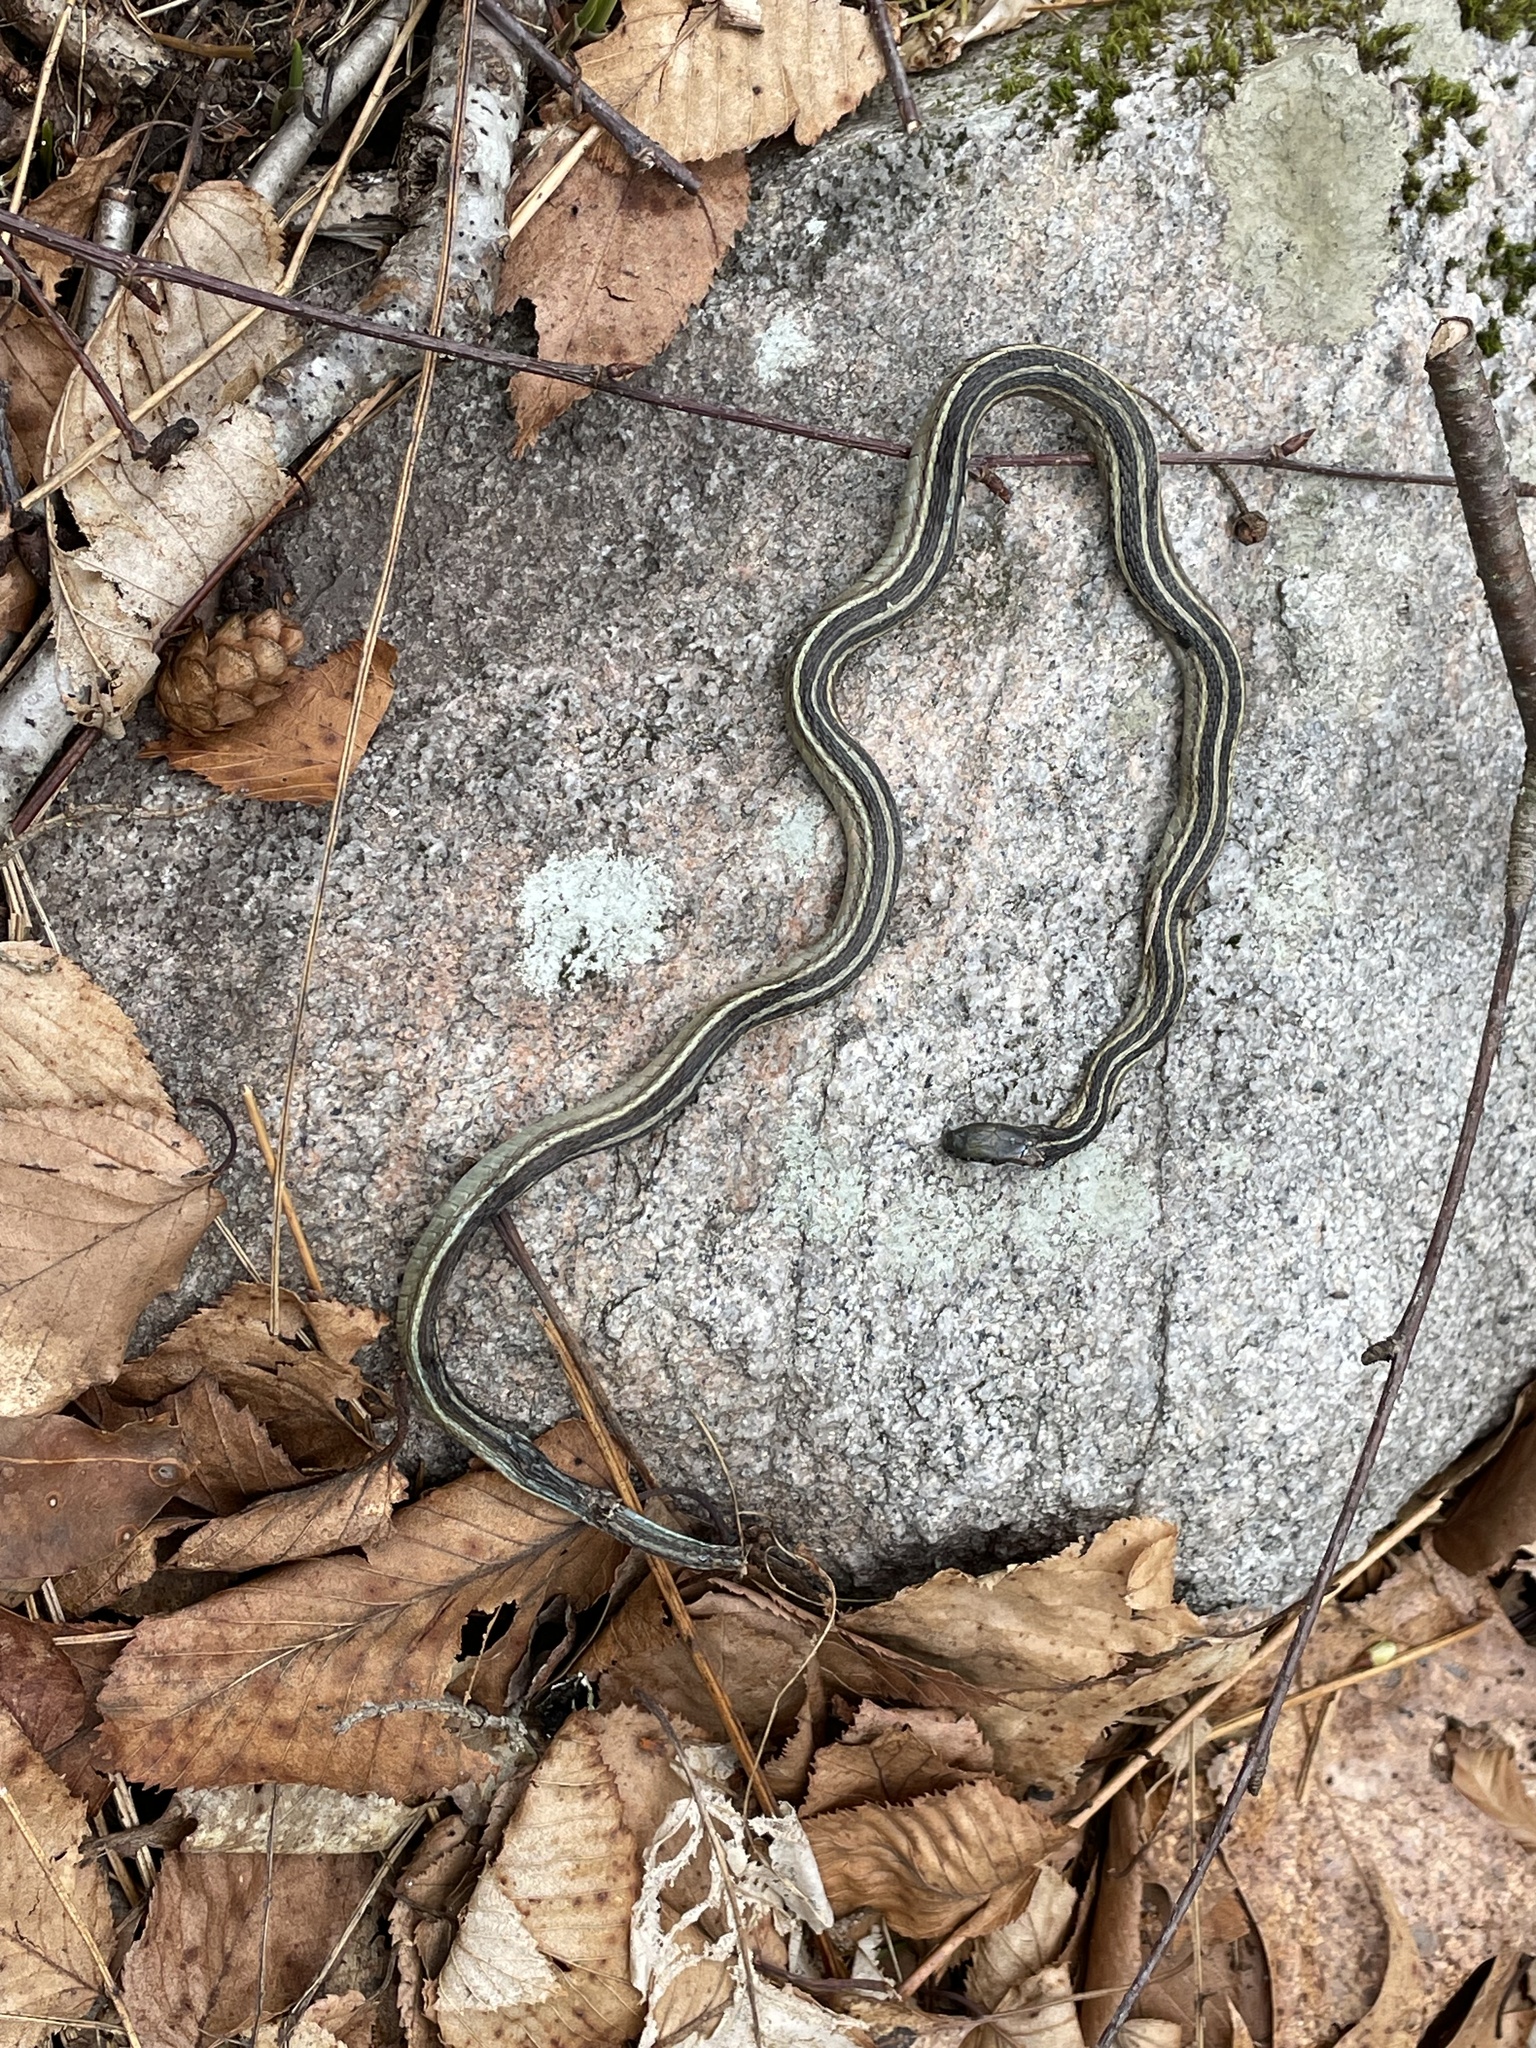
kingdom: Animalia
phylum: Chordata
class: Squamata
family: Colubridae
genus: Thamnophis
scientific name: Thamnophis saurita
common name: Eastern ribbonsnake
